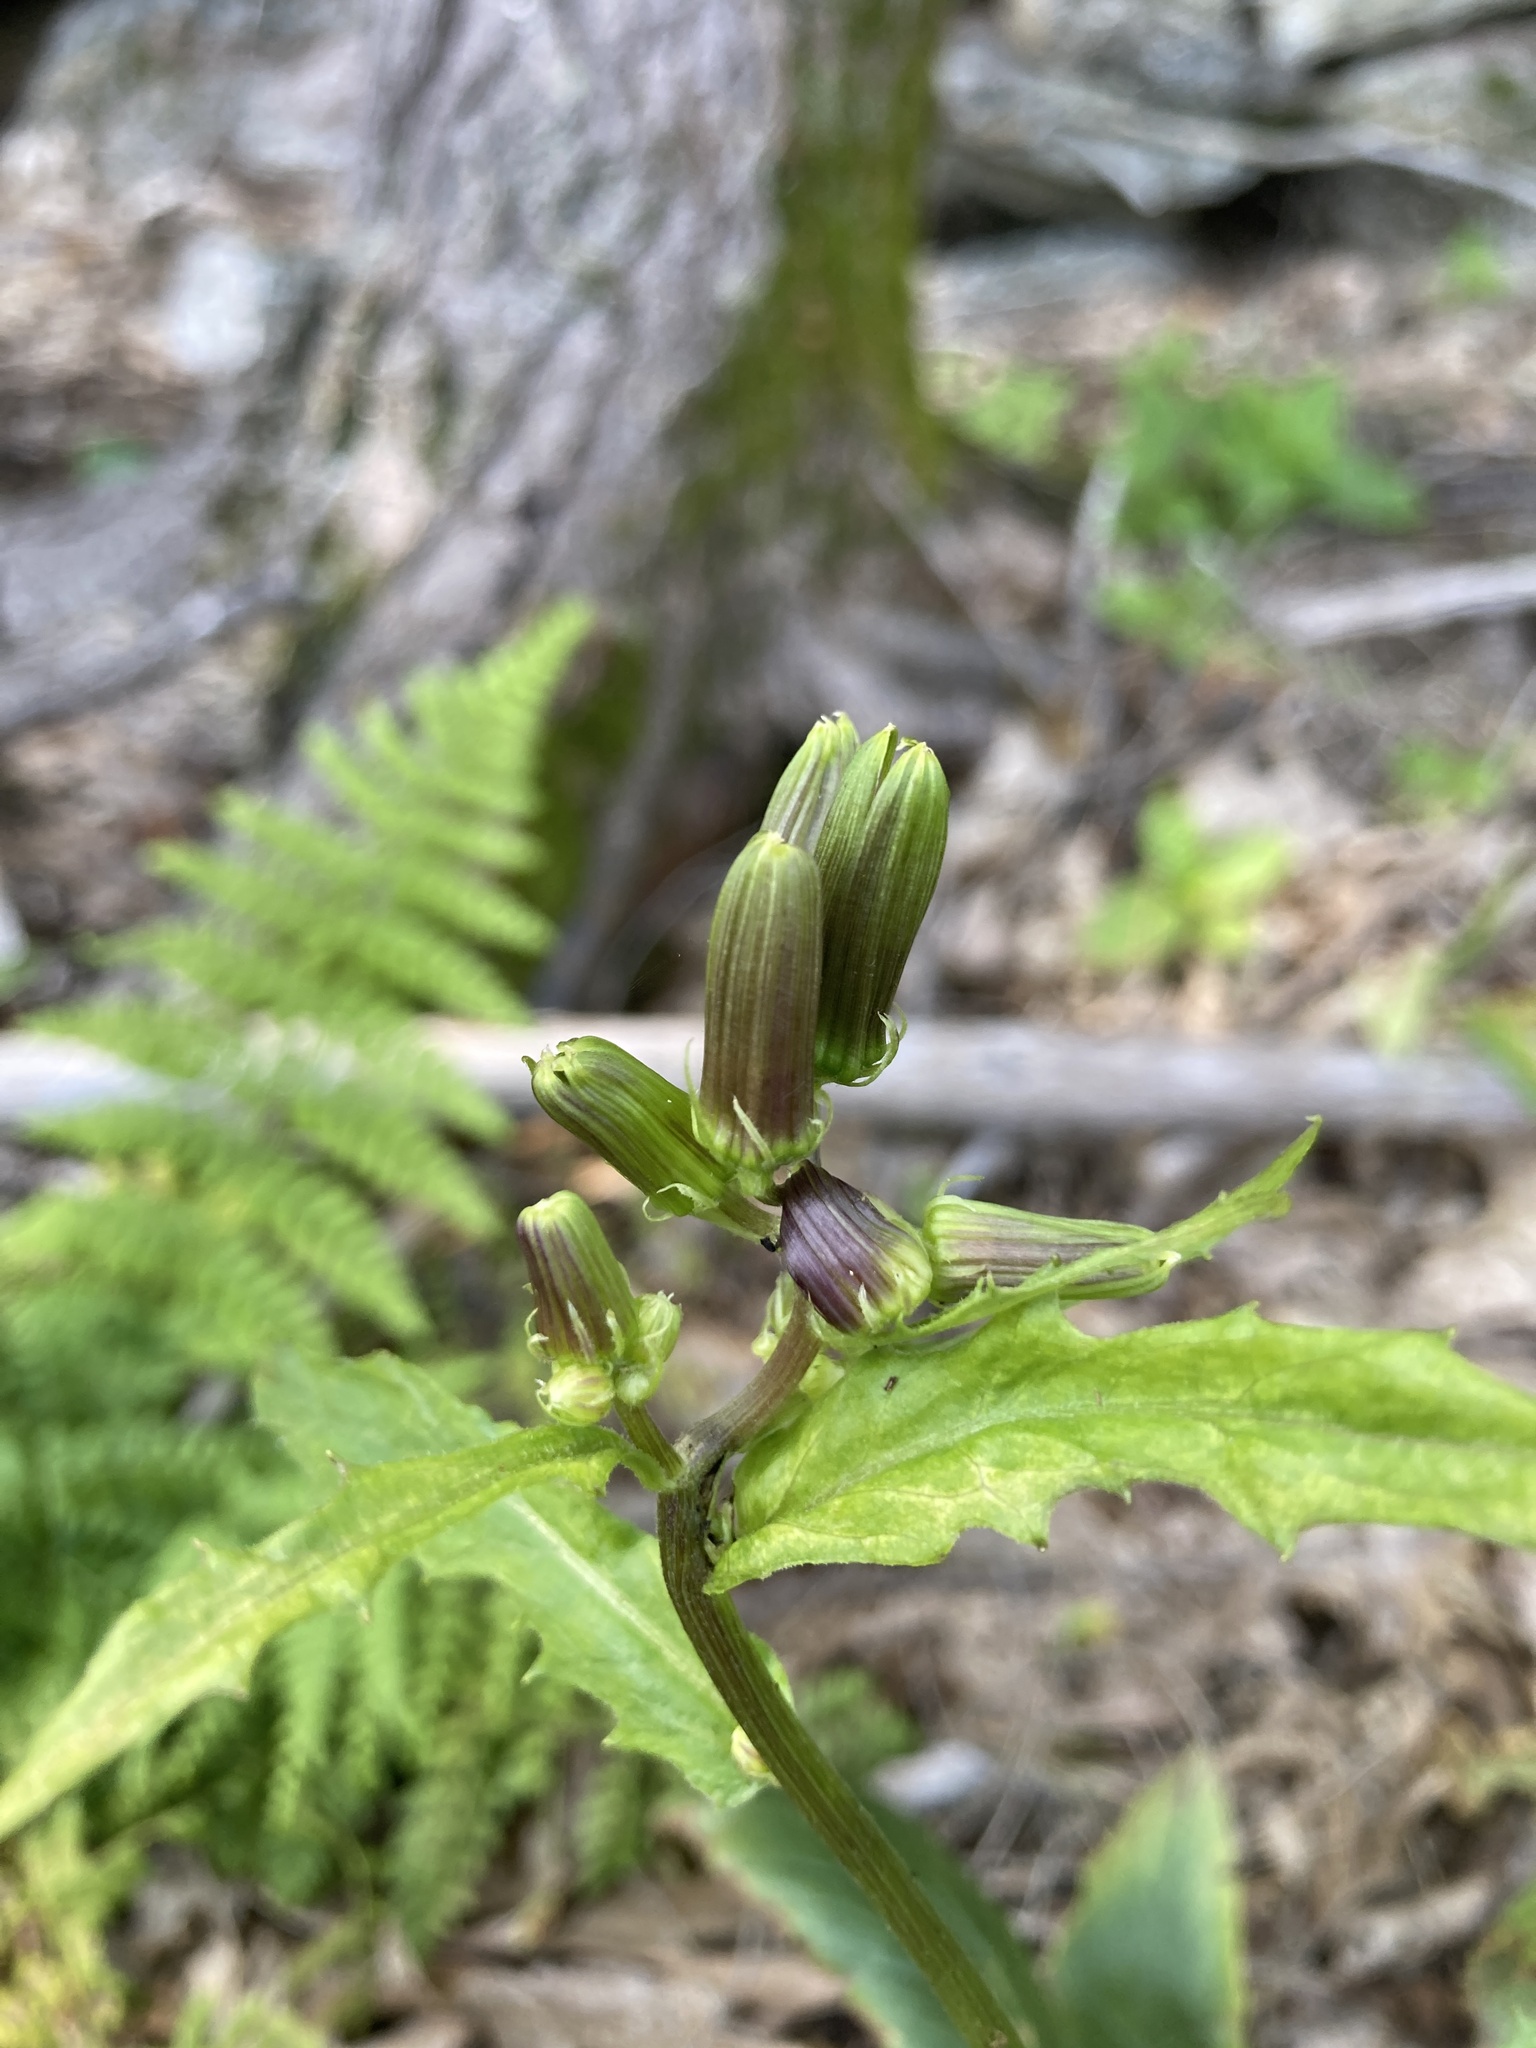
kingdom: Plantae
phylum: Tracheophyta
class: Magnoliopsida
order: Asterales
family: Asteraceae
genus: Erechtites
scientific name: Erechtites hieraciifolius
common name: American burnweed
